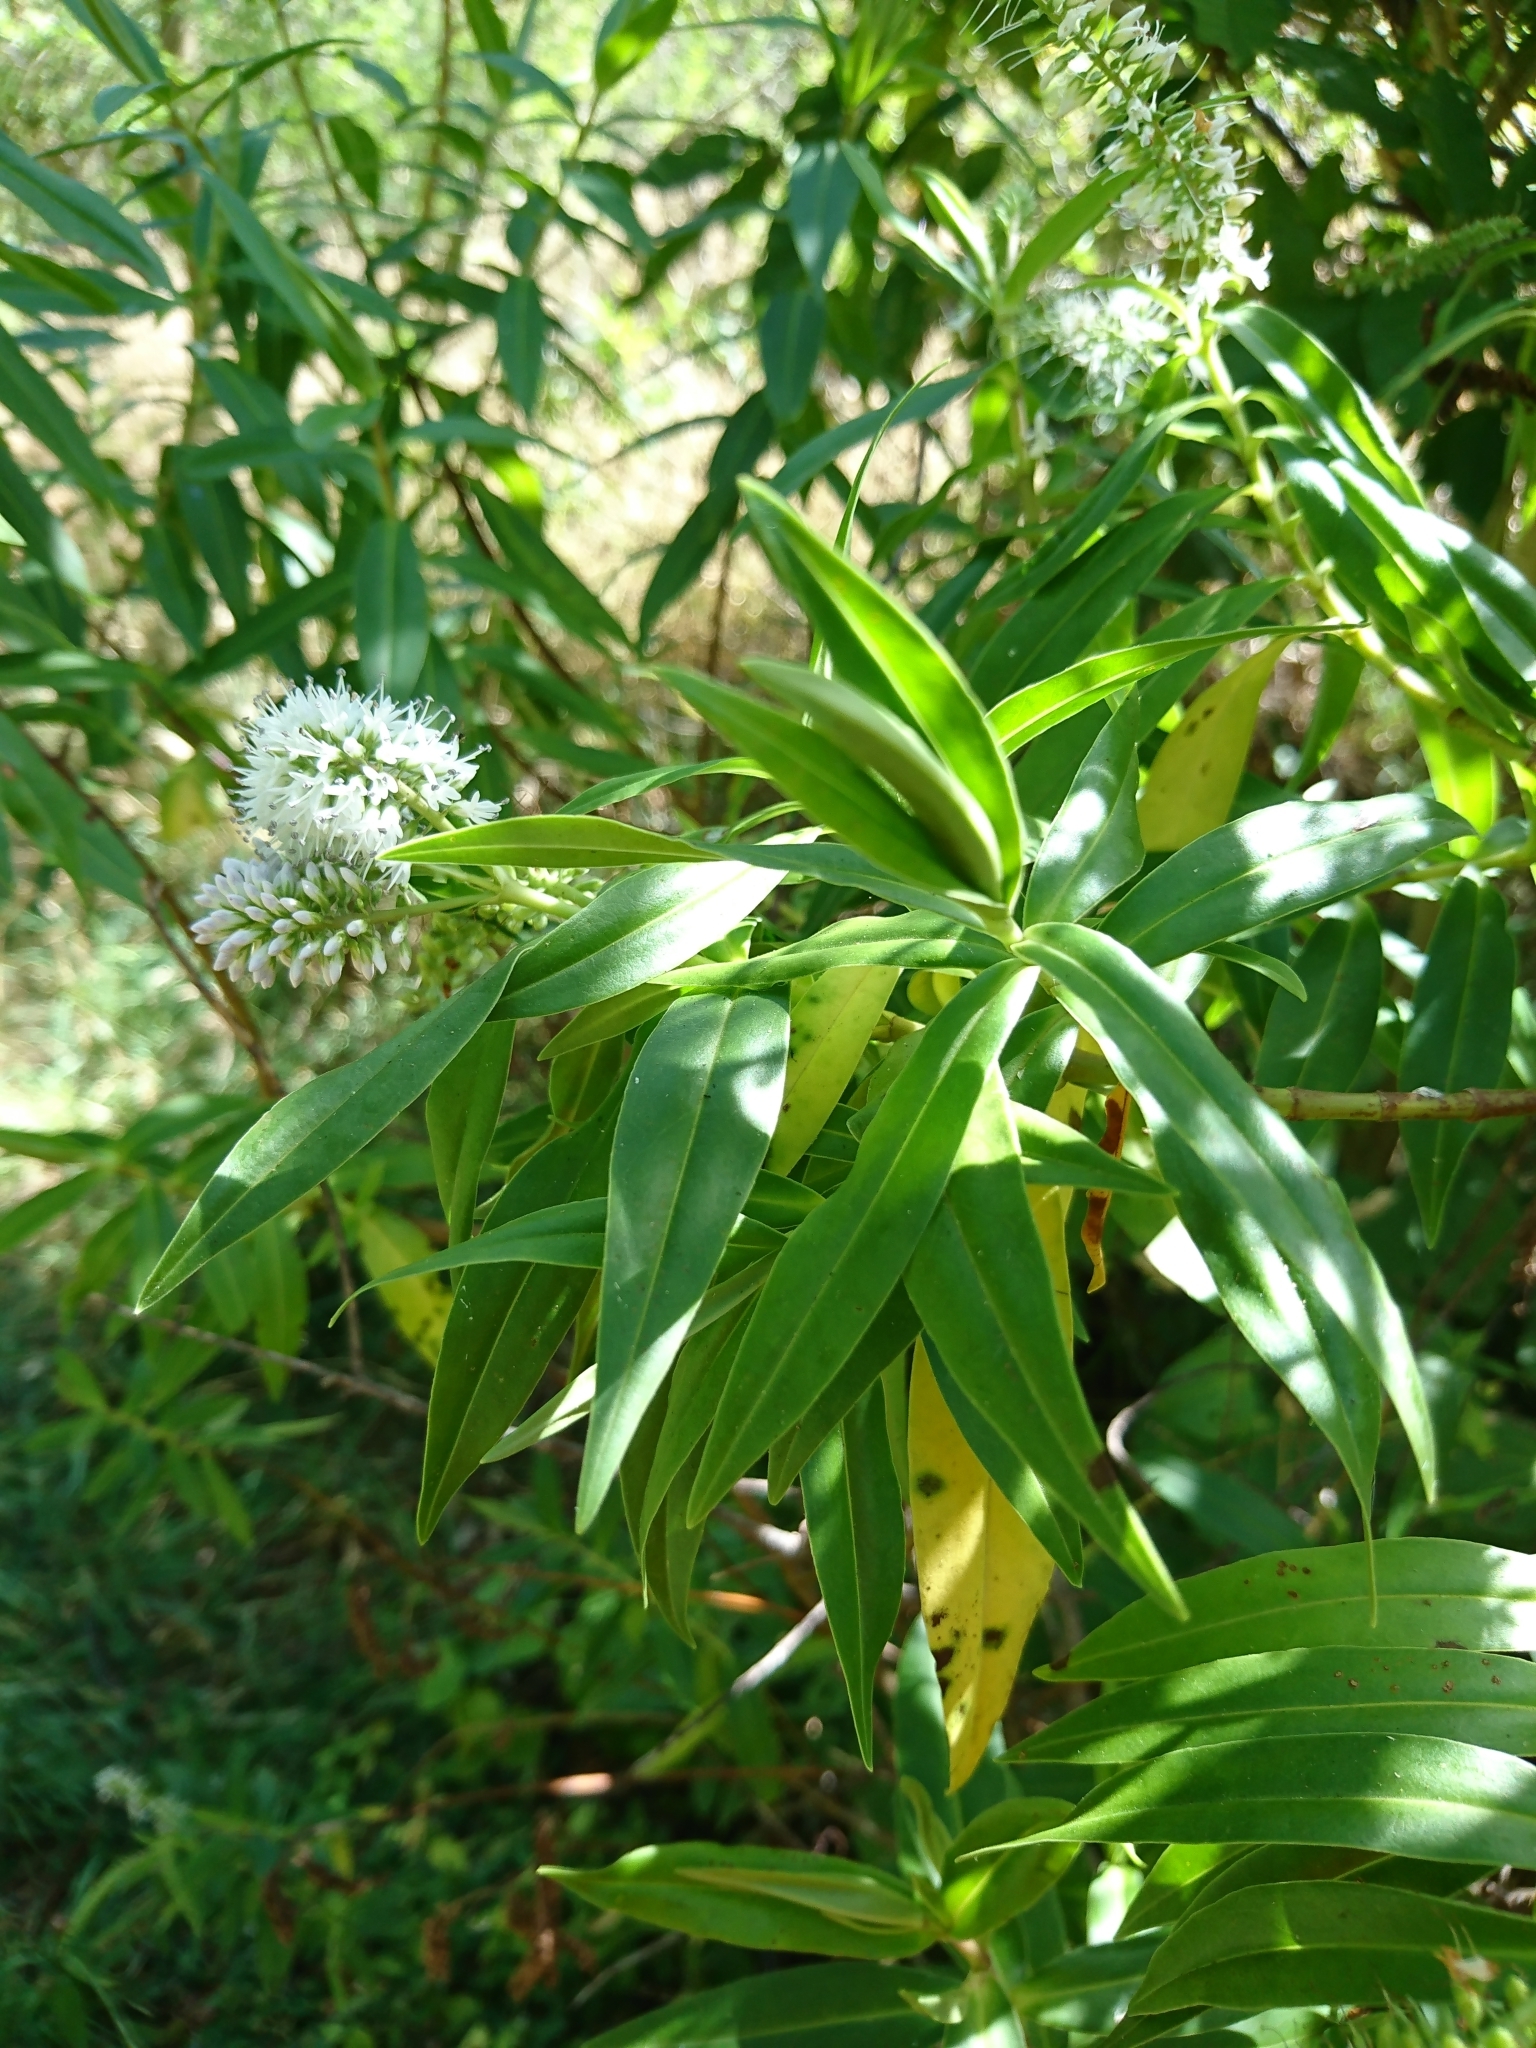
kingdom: Plantae
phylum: Tracheophyta
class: Magnoliopsida
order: Lamiales
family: Plantaginaceae
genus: Veronica
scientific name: Veronica stricta
